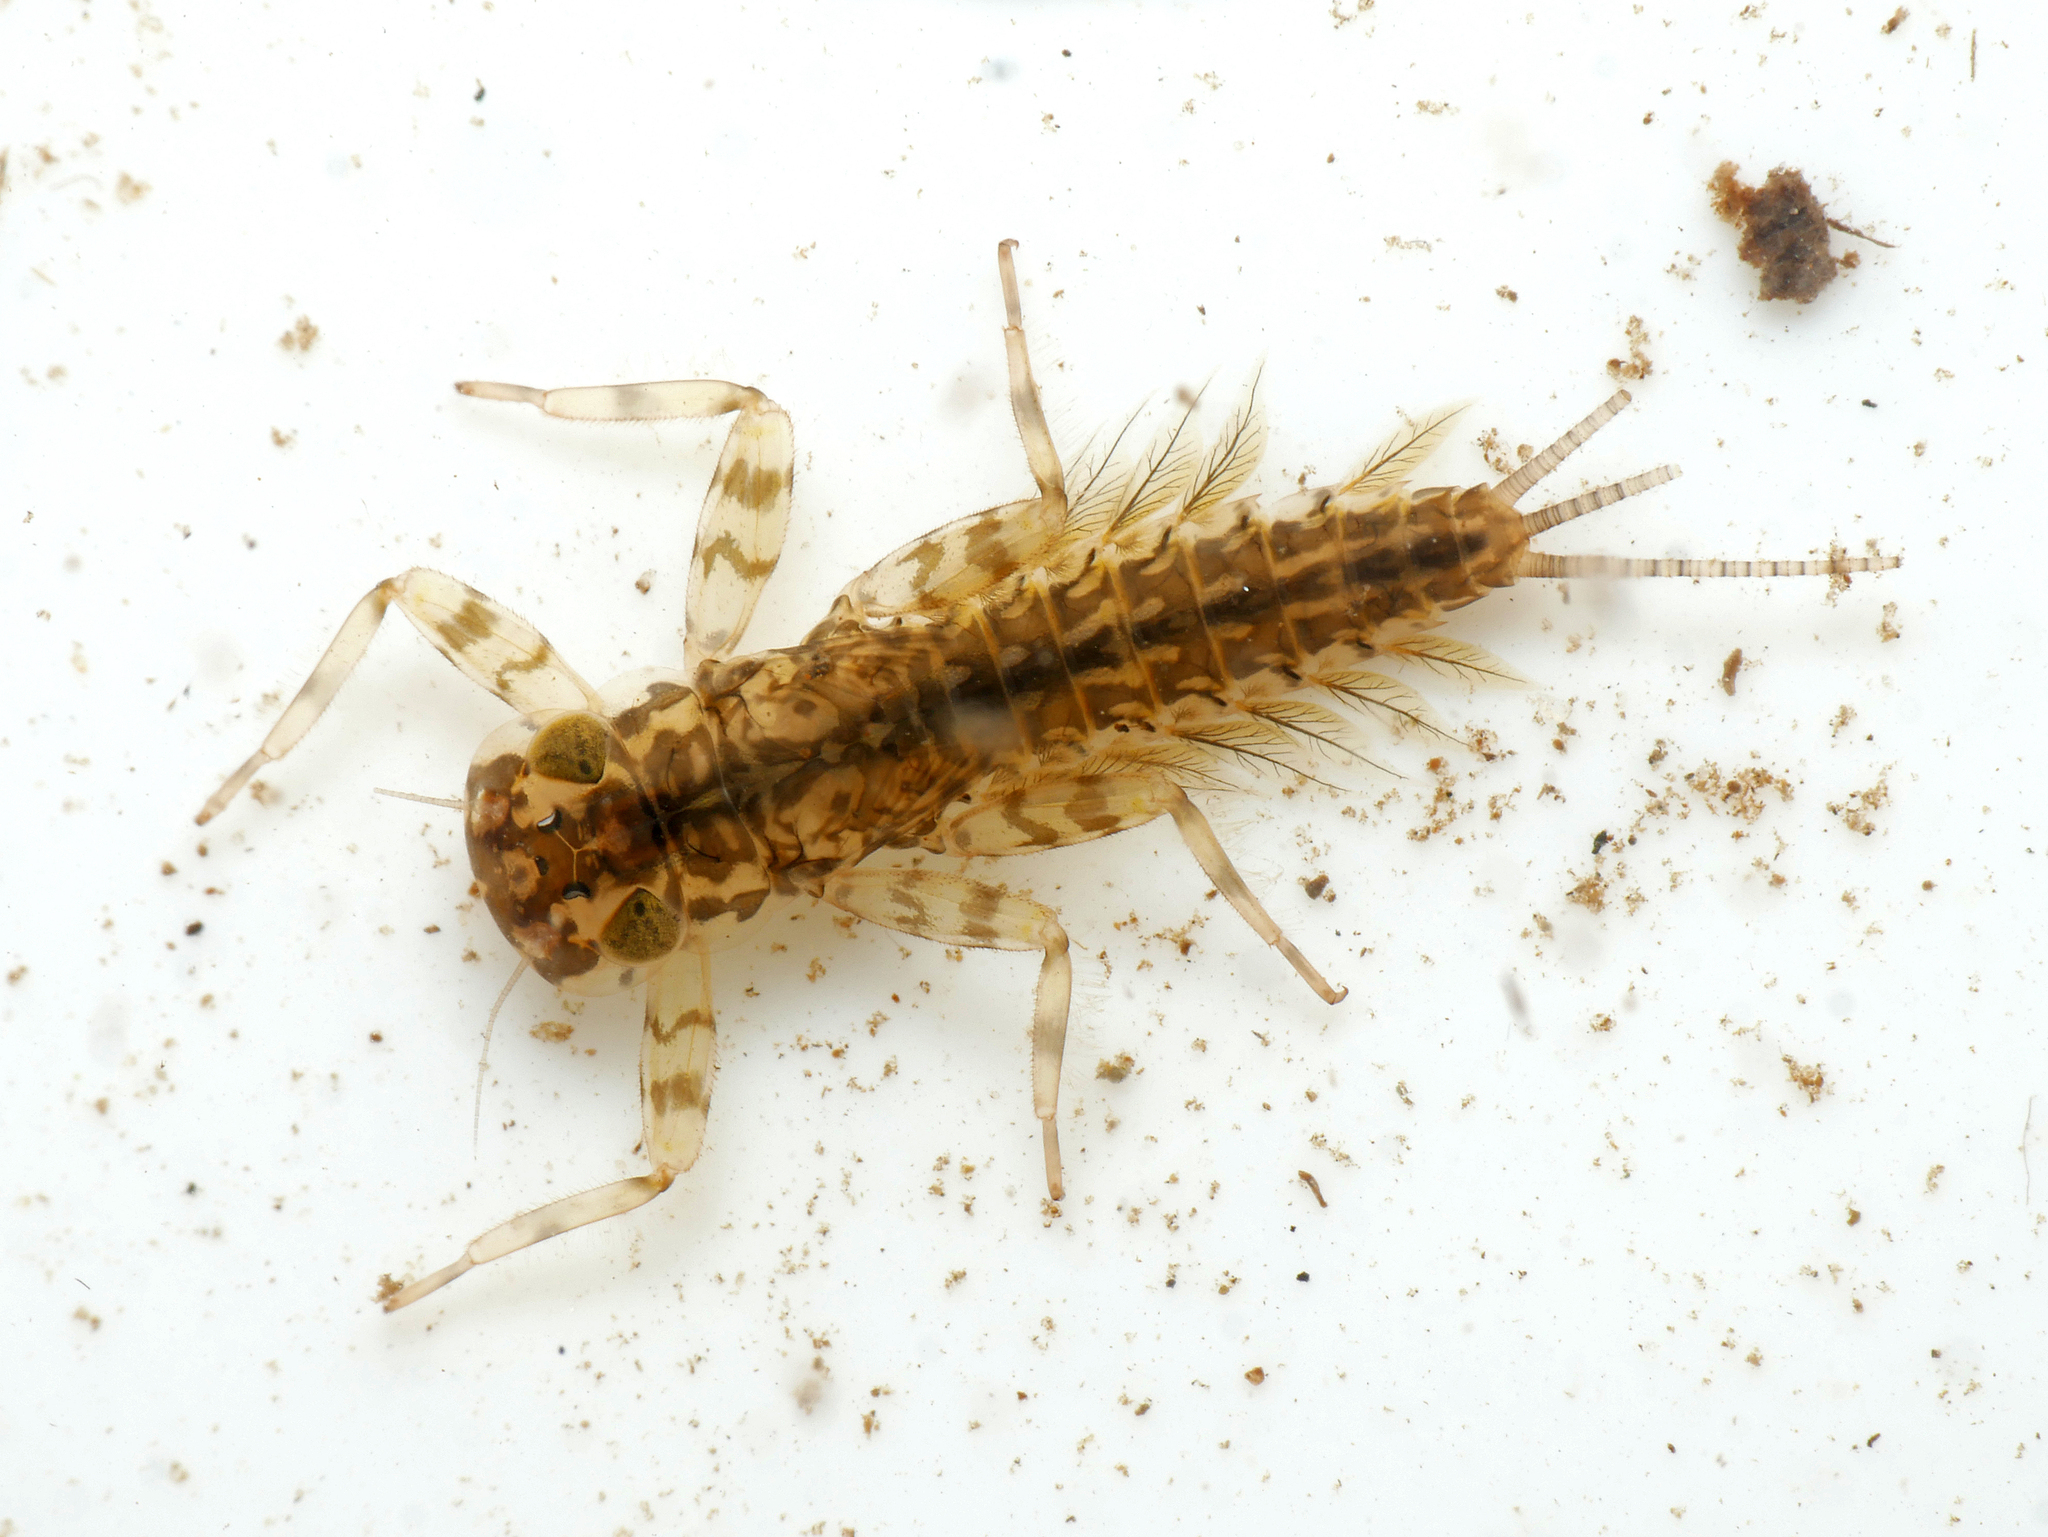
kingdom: Animalia
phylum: Arthropoda
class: Insecta
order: Ephemeroptera
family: Heptageniidae
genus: Kageronia
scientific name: Kageronia fuscogrisea
